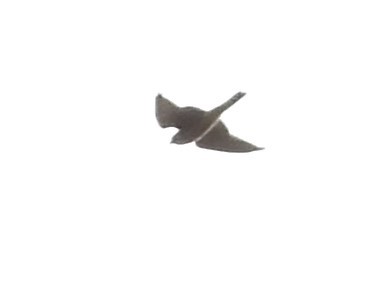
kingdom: Animalia
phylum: Chordata
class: Aves
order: Falconiformes
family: Falconidae
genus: Falco
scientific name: Falco sparverius
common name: American kestrel
